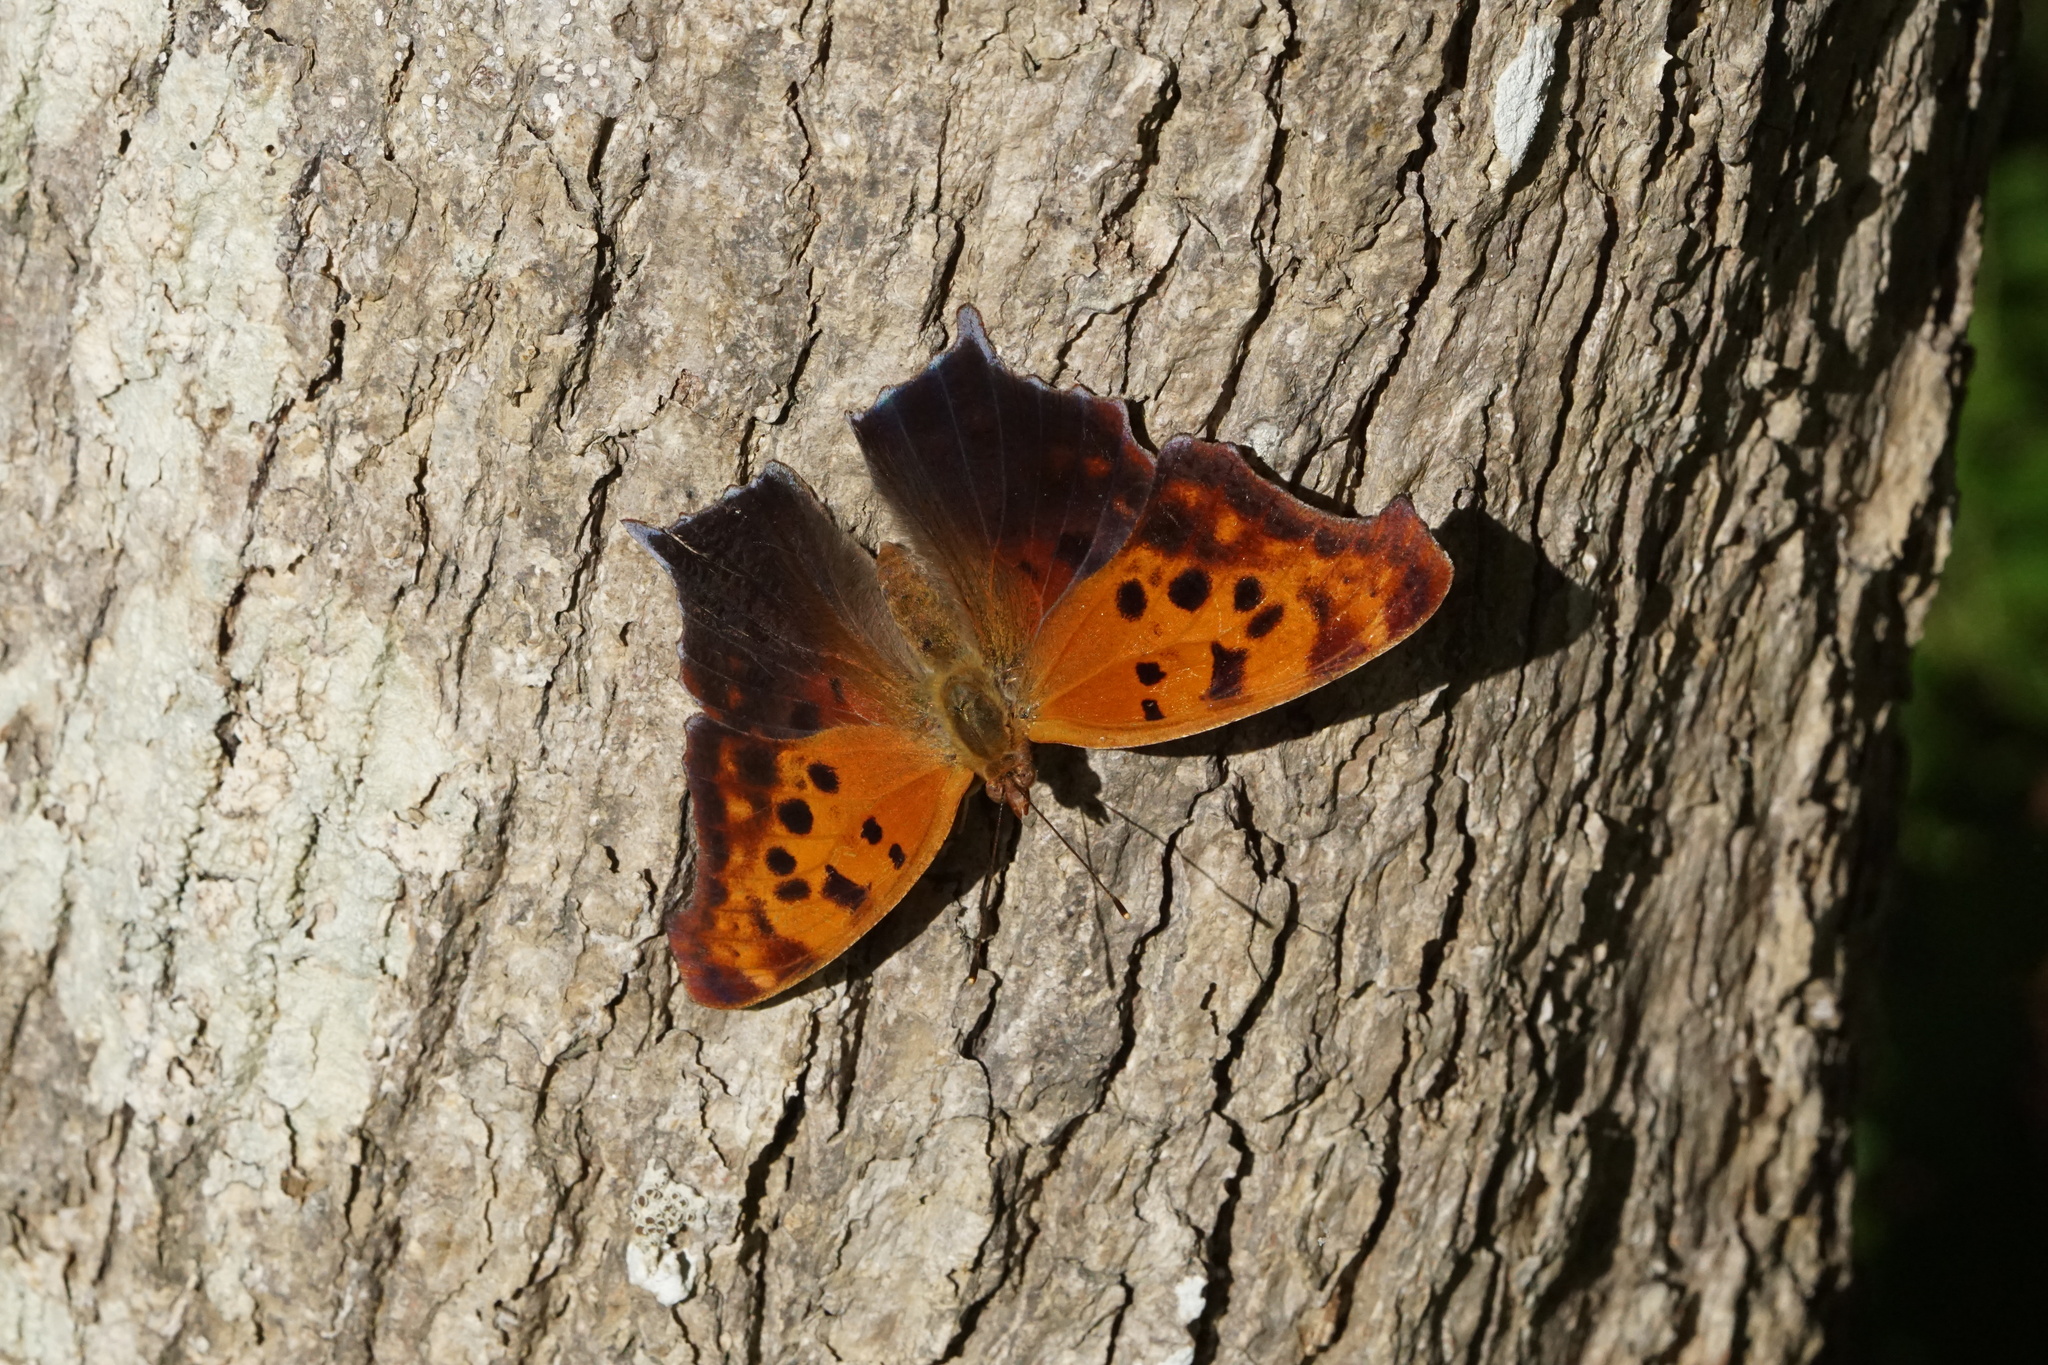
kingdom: Animalia
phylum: Arthropoda
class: Insecta
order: Lepidoptera
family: Nymphalidae
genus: Polygonia
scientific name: Polygonia interrogationis
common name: Question mark
